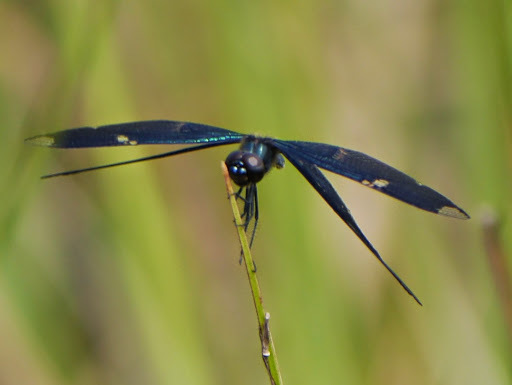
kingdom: Animalia
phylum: Arthropoda
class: Insecta
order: Odonata
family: Libellulidae
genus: Rhyothemis
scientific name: Rhyothemis fenestrina
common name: Skylight flutterer
